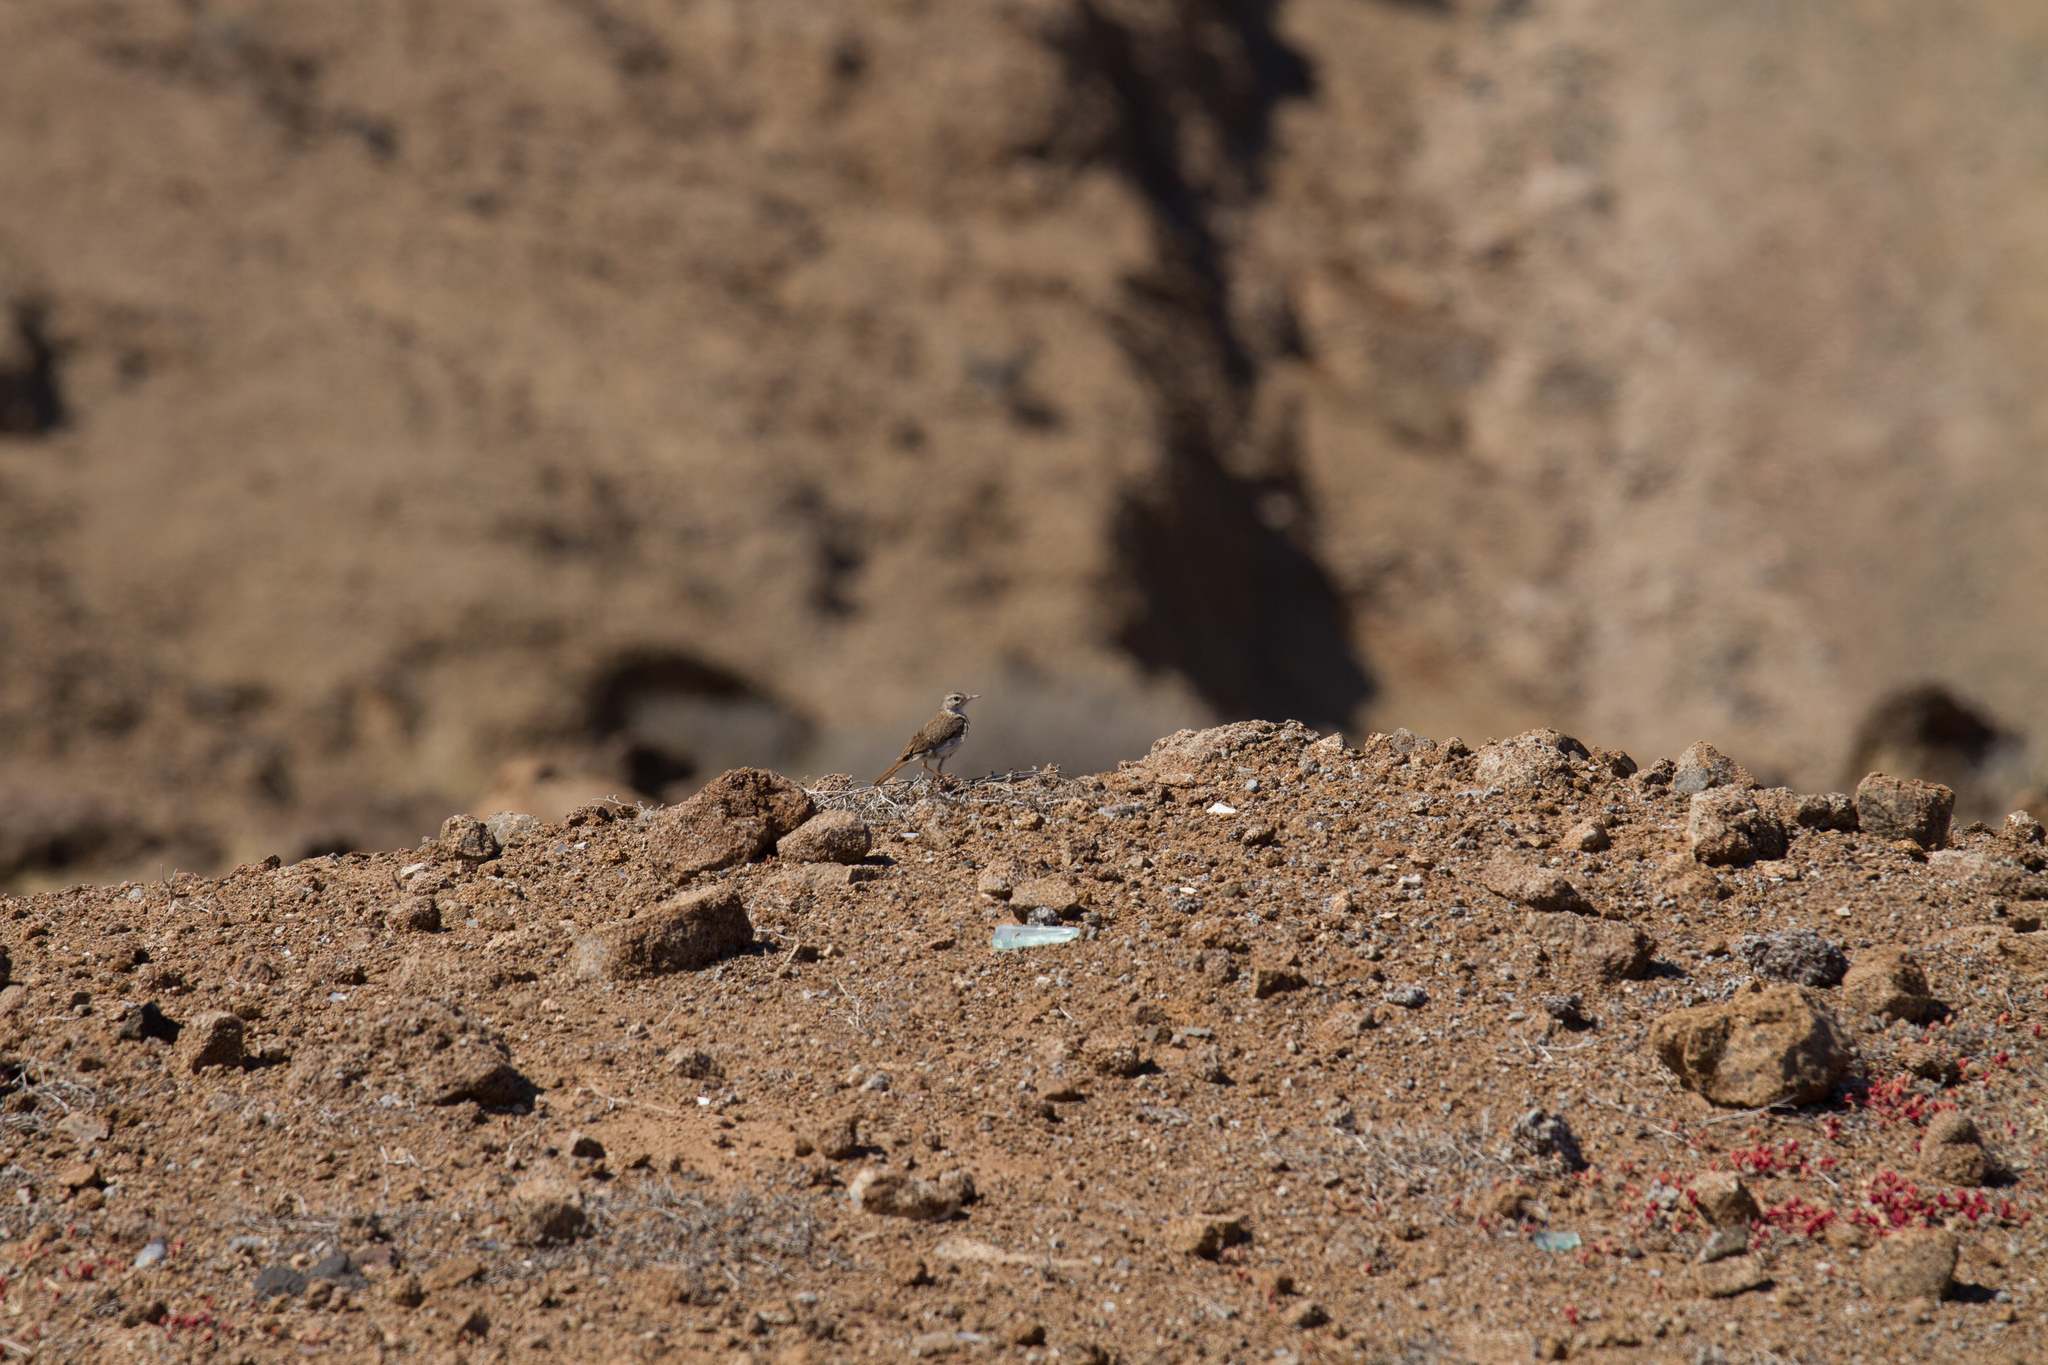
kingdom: Animalia
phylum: Chordata
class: Aves
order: Passeriformes
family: Motacillidae
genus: Anthus
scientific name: Anthus berthelotii
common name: Berthelot's pipit
